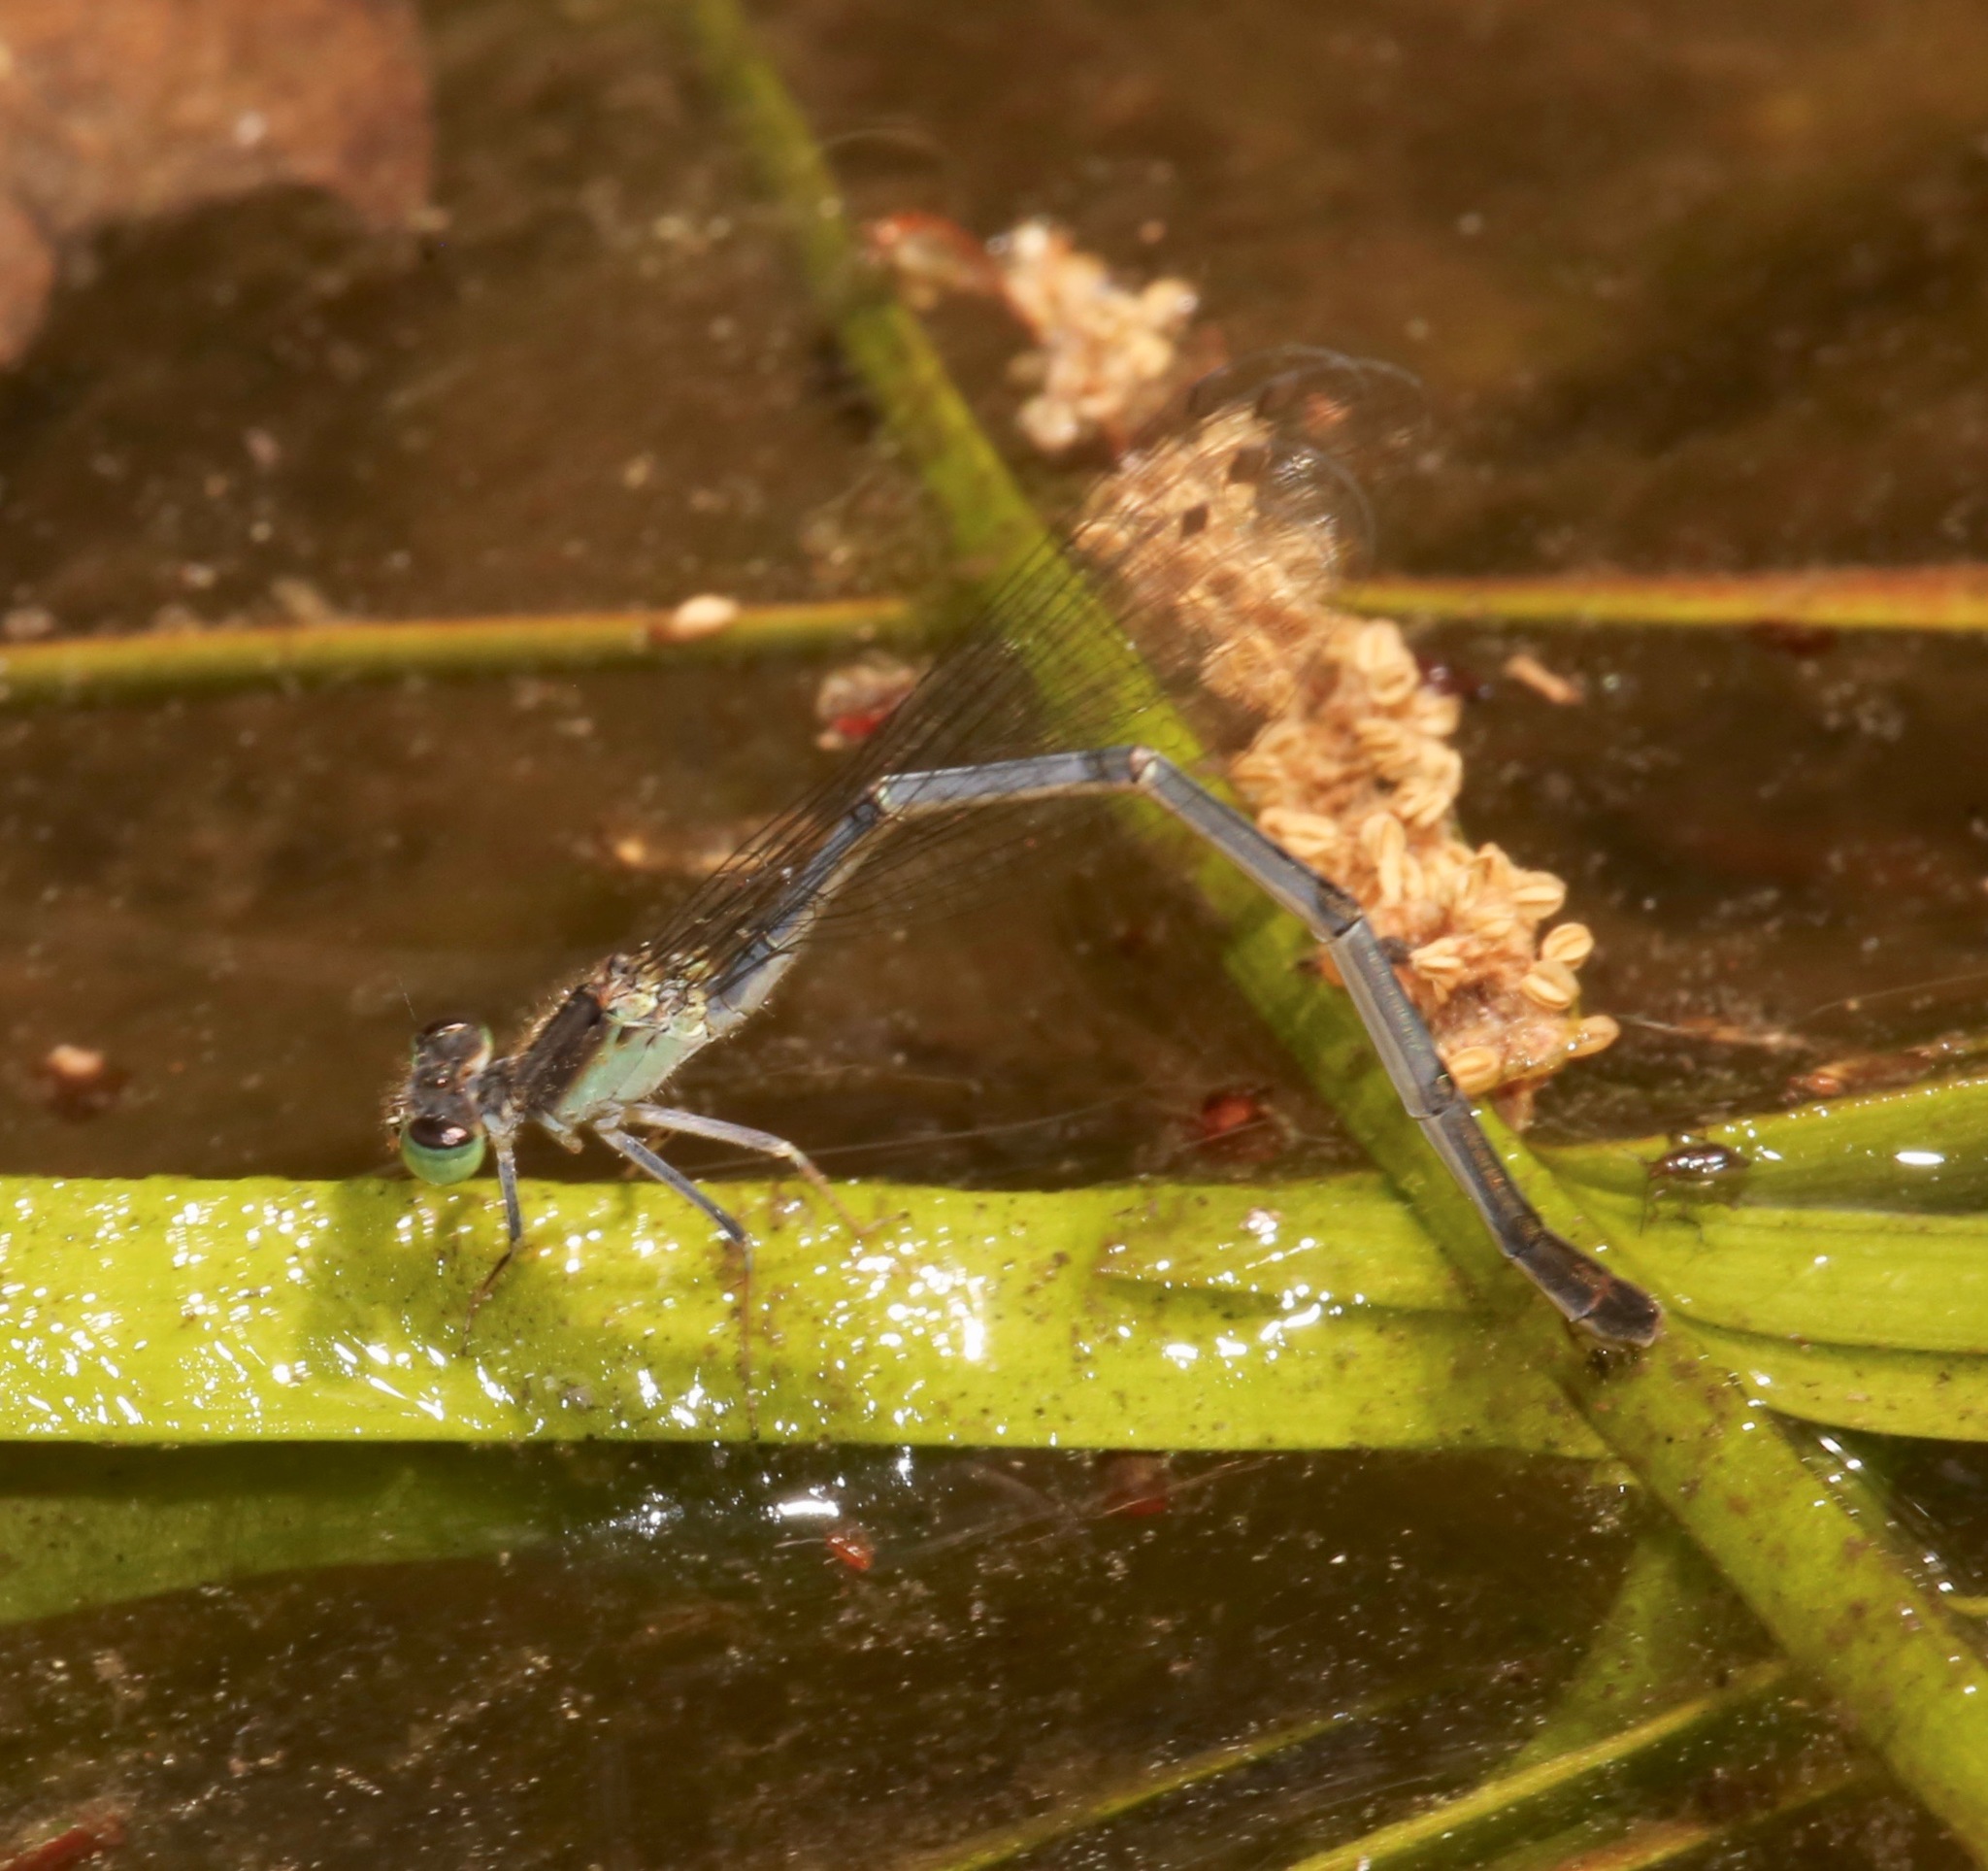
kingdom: Animalia
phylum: Arthropoda
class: Insecta
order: Odonata
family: Coenagrionidae
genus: Ischnura
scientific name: Ischnura prognata
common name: Furtive forktail
